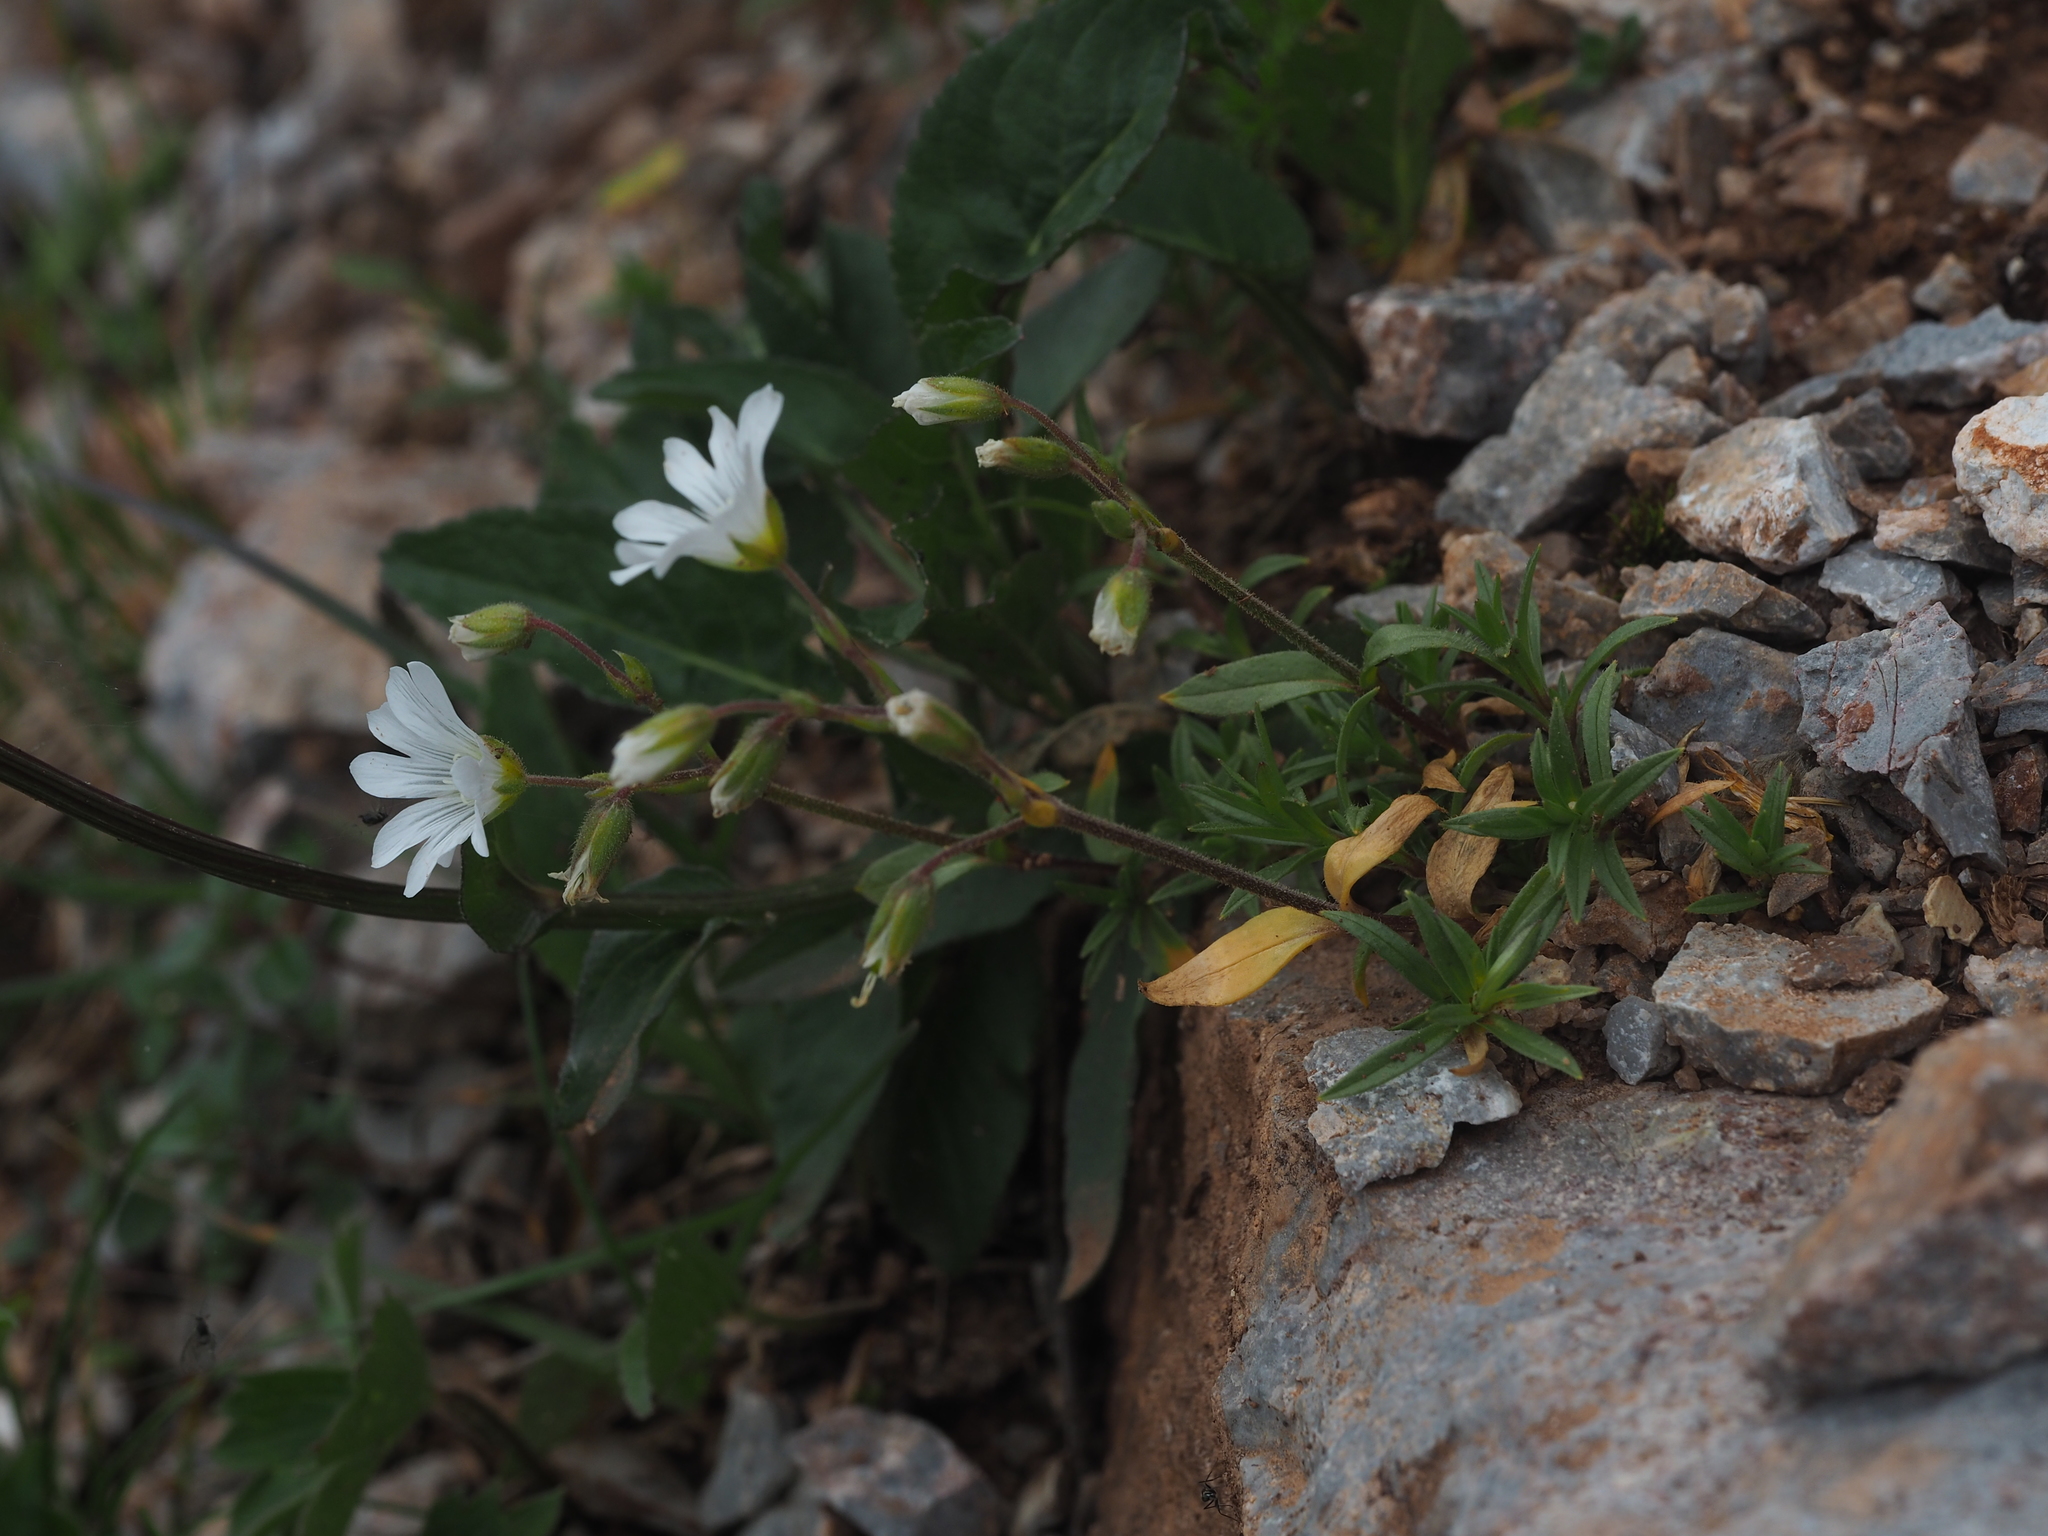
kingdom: Plantae
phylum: Tracheophyta
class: Magnoliopsida
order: Caryophyllales
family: Caryophyllaceae
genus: Cerastium
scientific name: Cerastium carinthiacum
